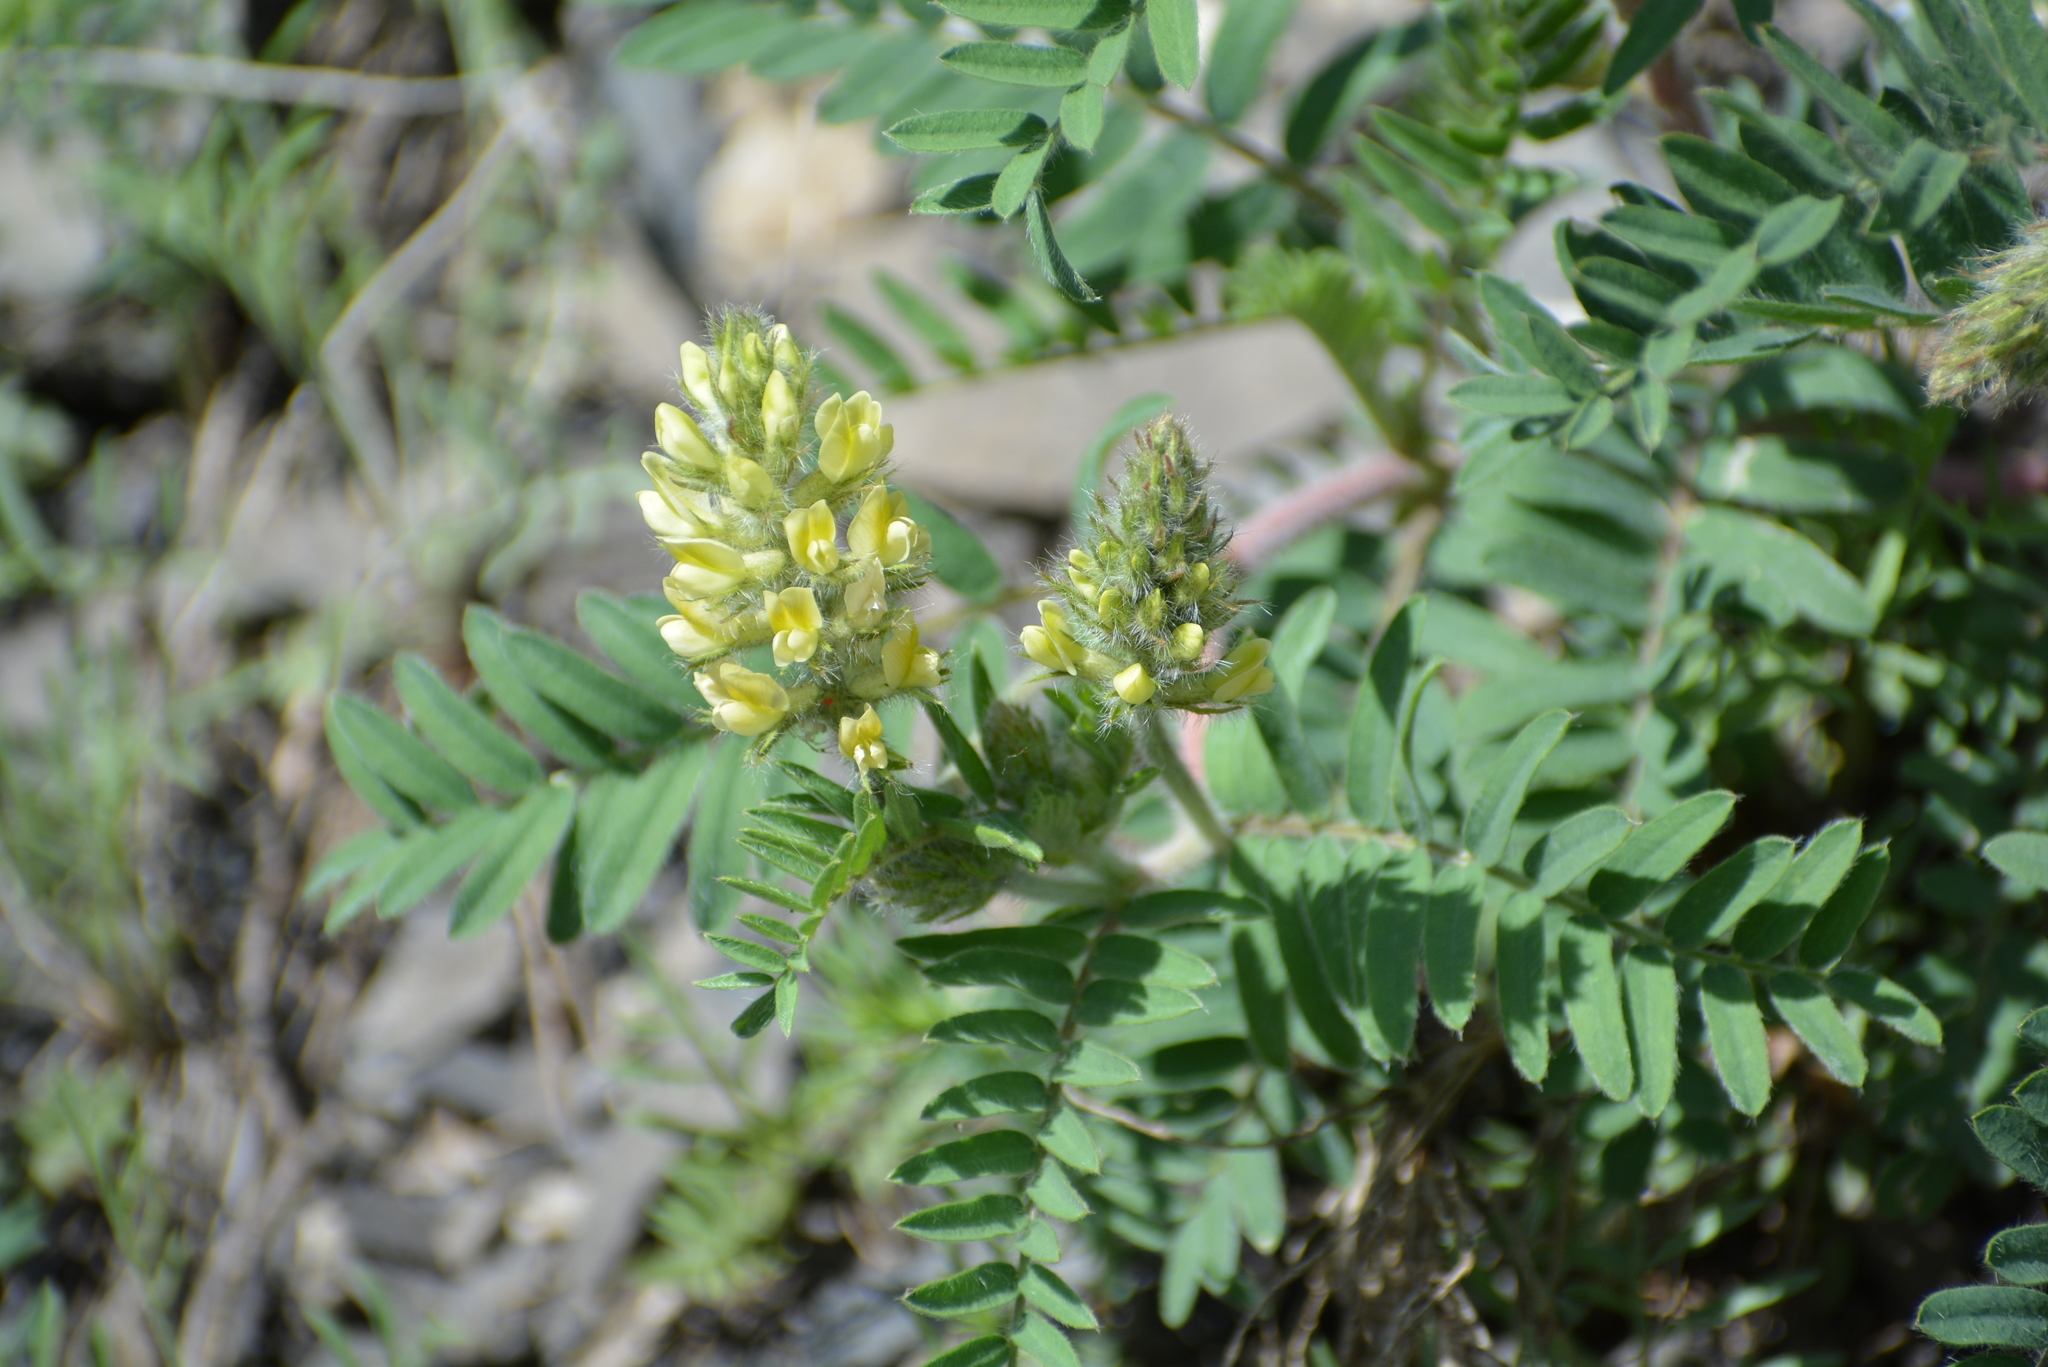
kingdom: Plantae
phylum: Tracheophyta
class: Magnoliopsida
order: Fabales
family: Fabaceae
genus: Oxytropis
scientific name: Oxytropis pilosa
